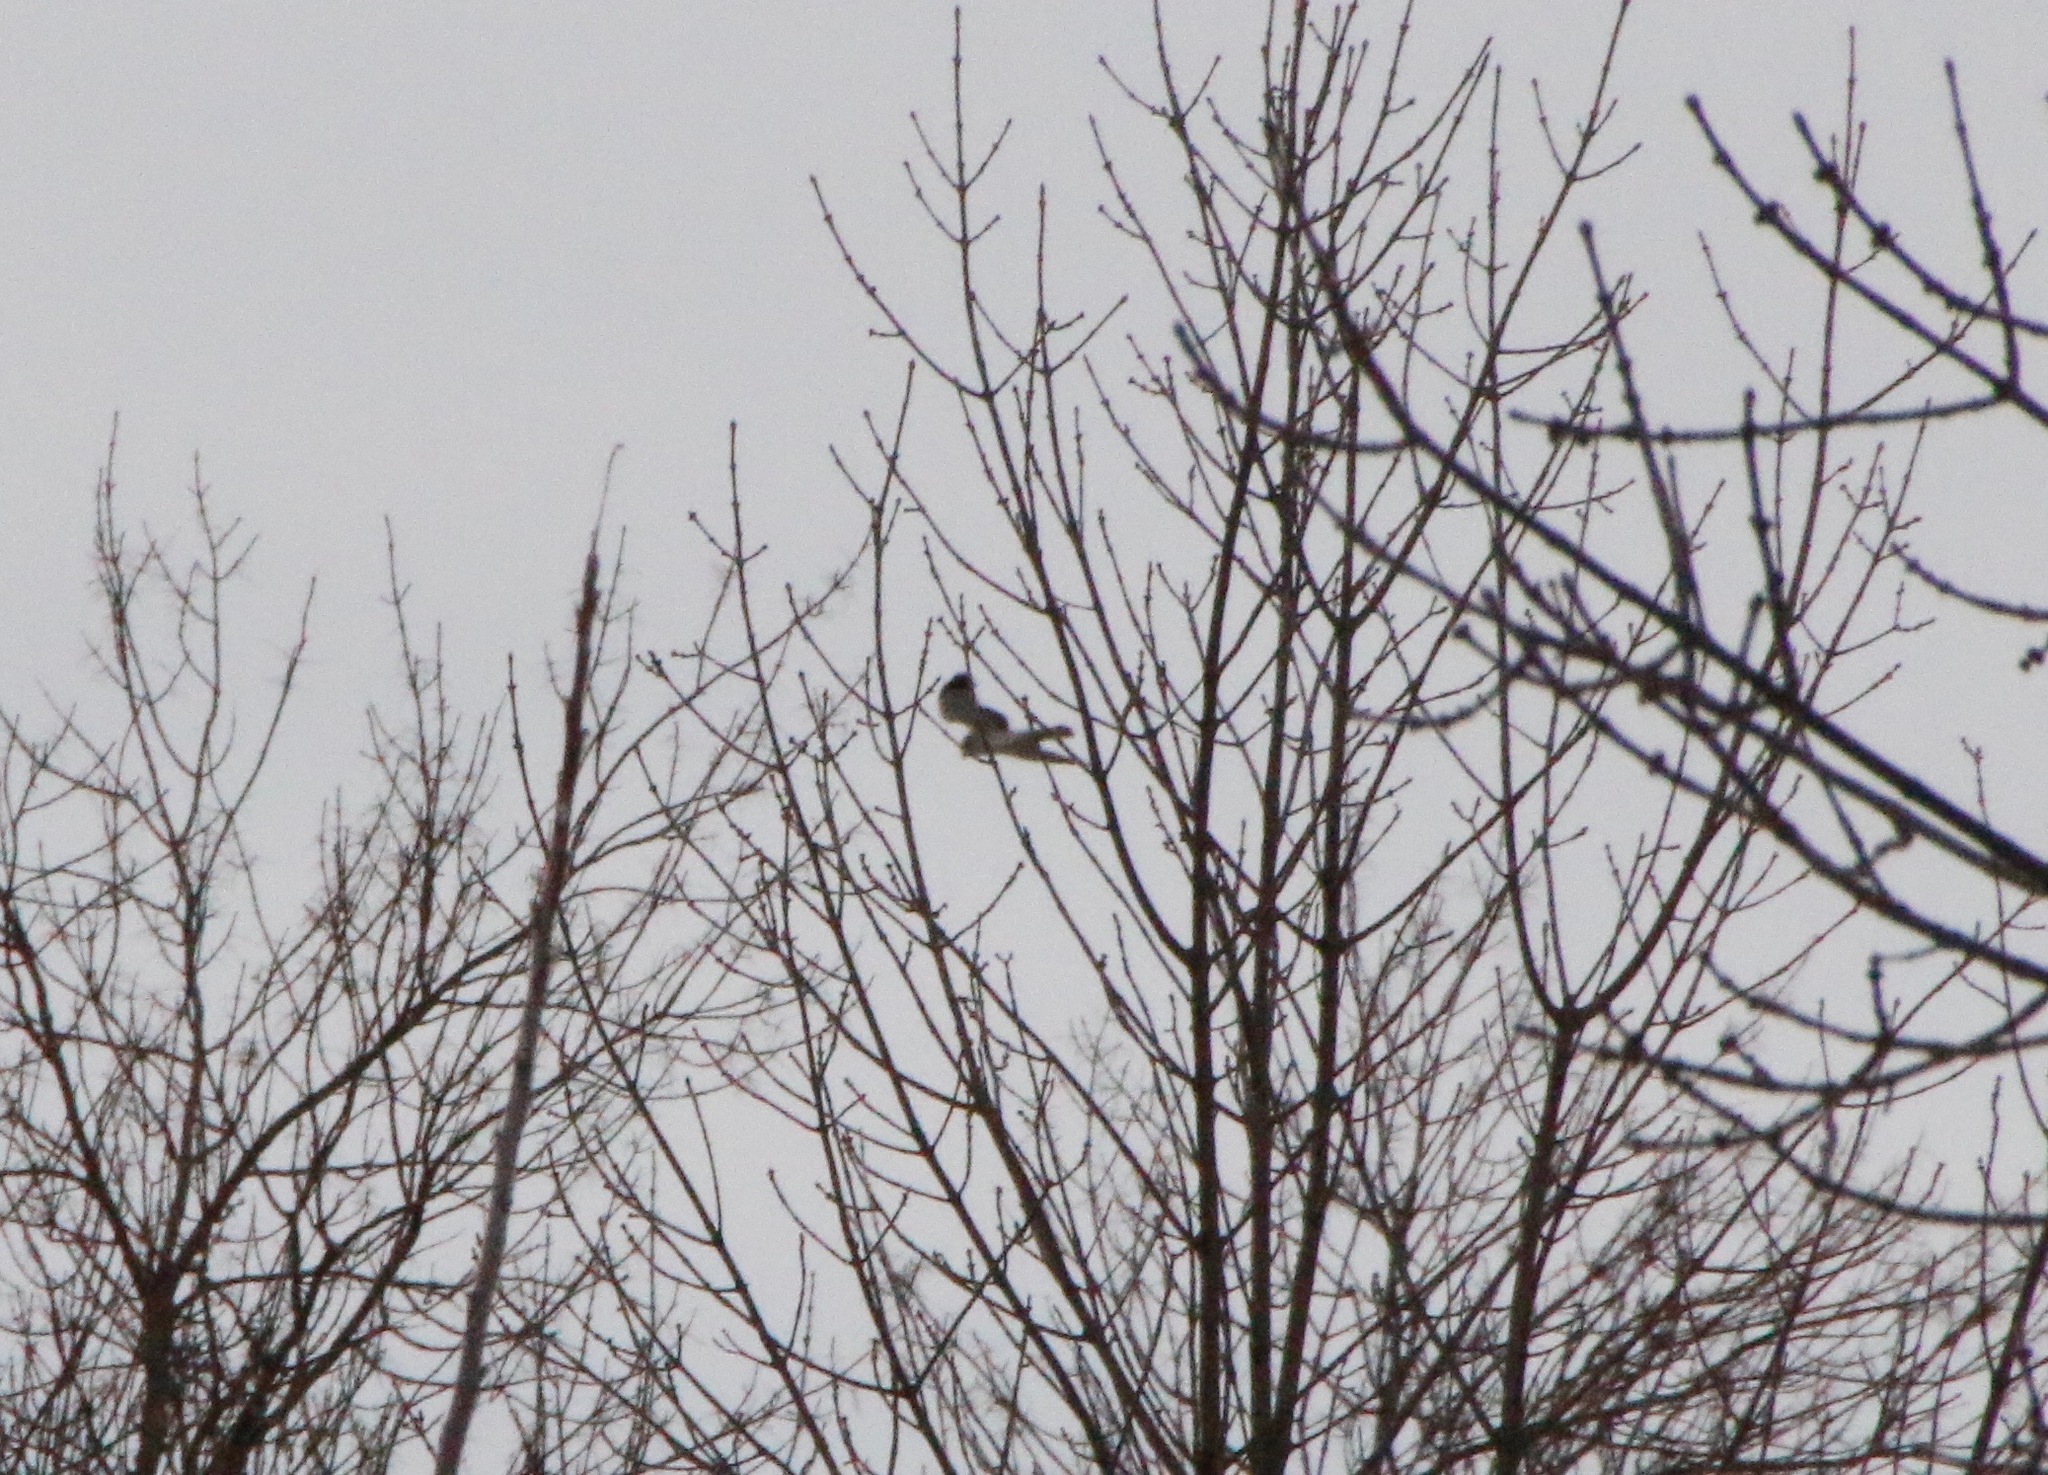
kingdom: Animalia
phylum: Chordata
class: Aves
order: Accipitriformes
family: Accipitridae
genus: Circus
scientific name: Circus cyaneus
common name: Hen harrier
